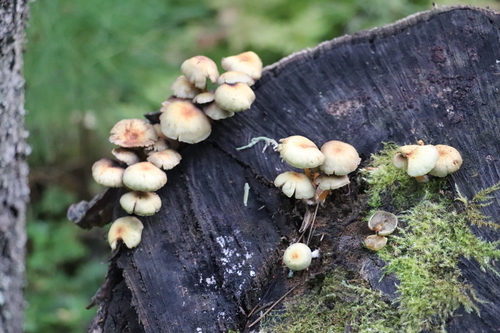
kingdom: Fungi
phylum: Basidiomycota
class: Agaricomycetes
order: Agaricales
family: Strophariaceae
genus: Hypholoma
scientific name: Hypholoma fasciculare
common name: Sulphur tuft
